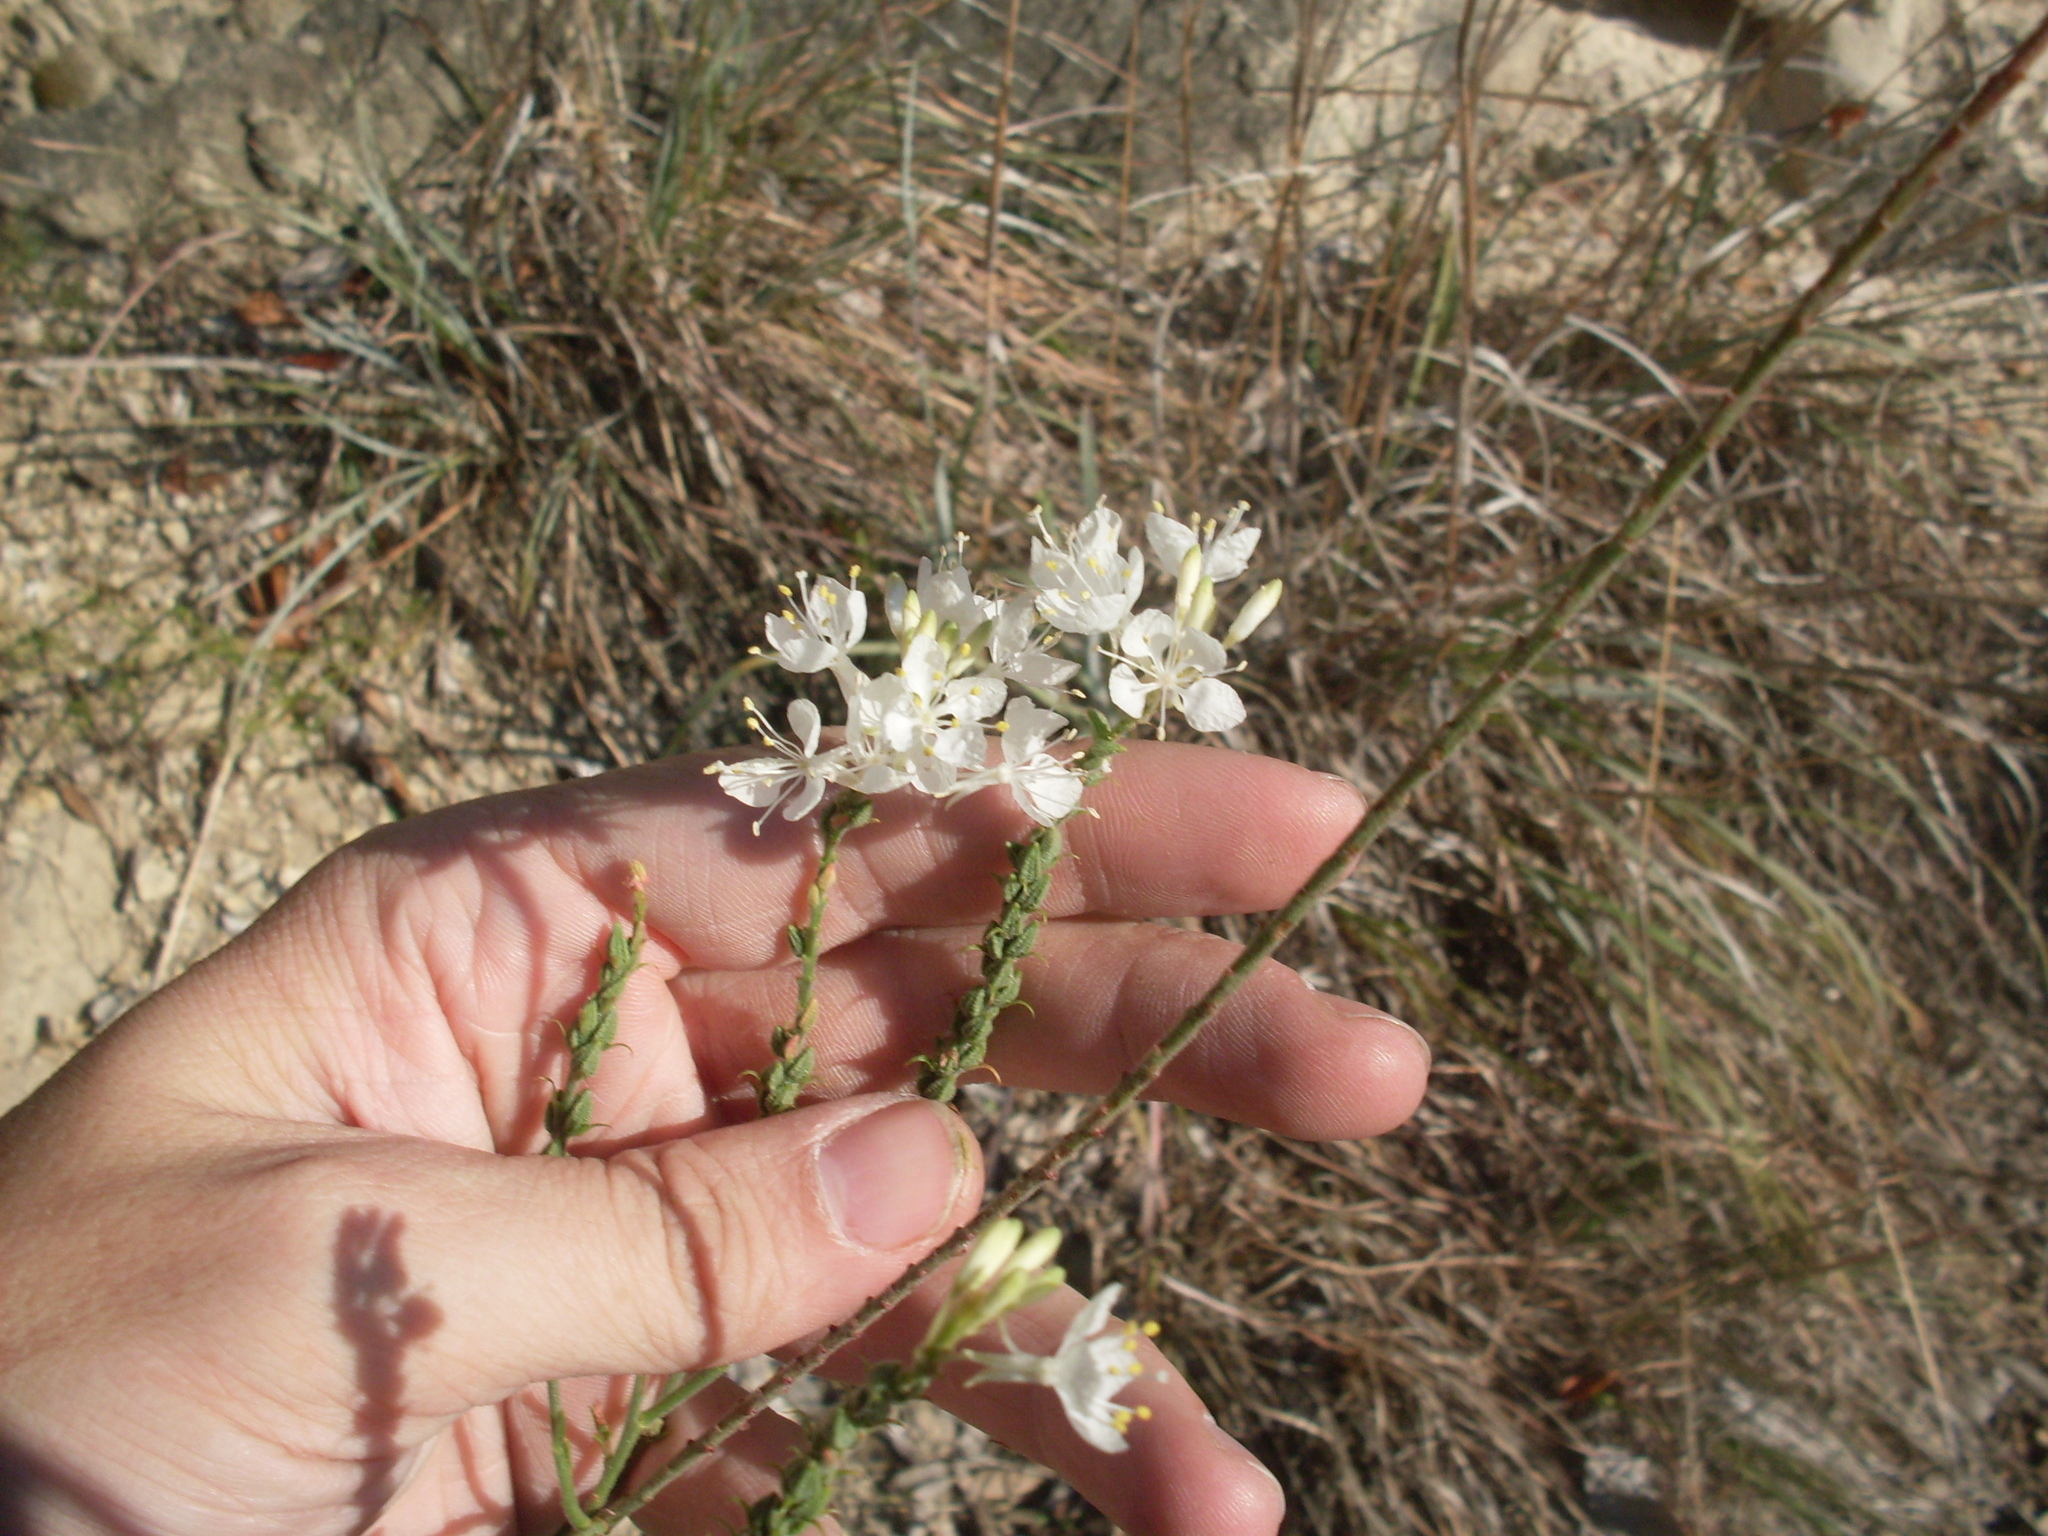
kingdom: Plantae
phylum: Tracheophyta
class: Magnoliopsida
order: Myrtales
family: Onagraceae
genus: Oenothera
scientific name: Oenothera glaucifolia
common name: False gaura
